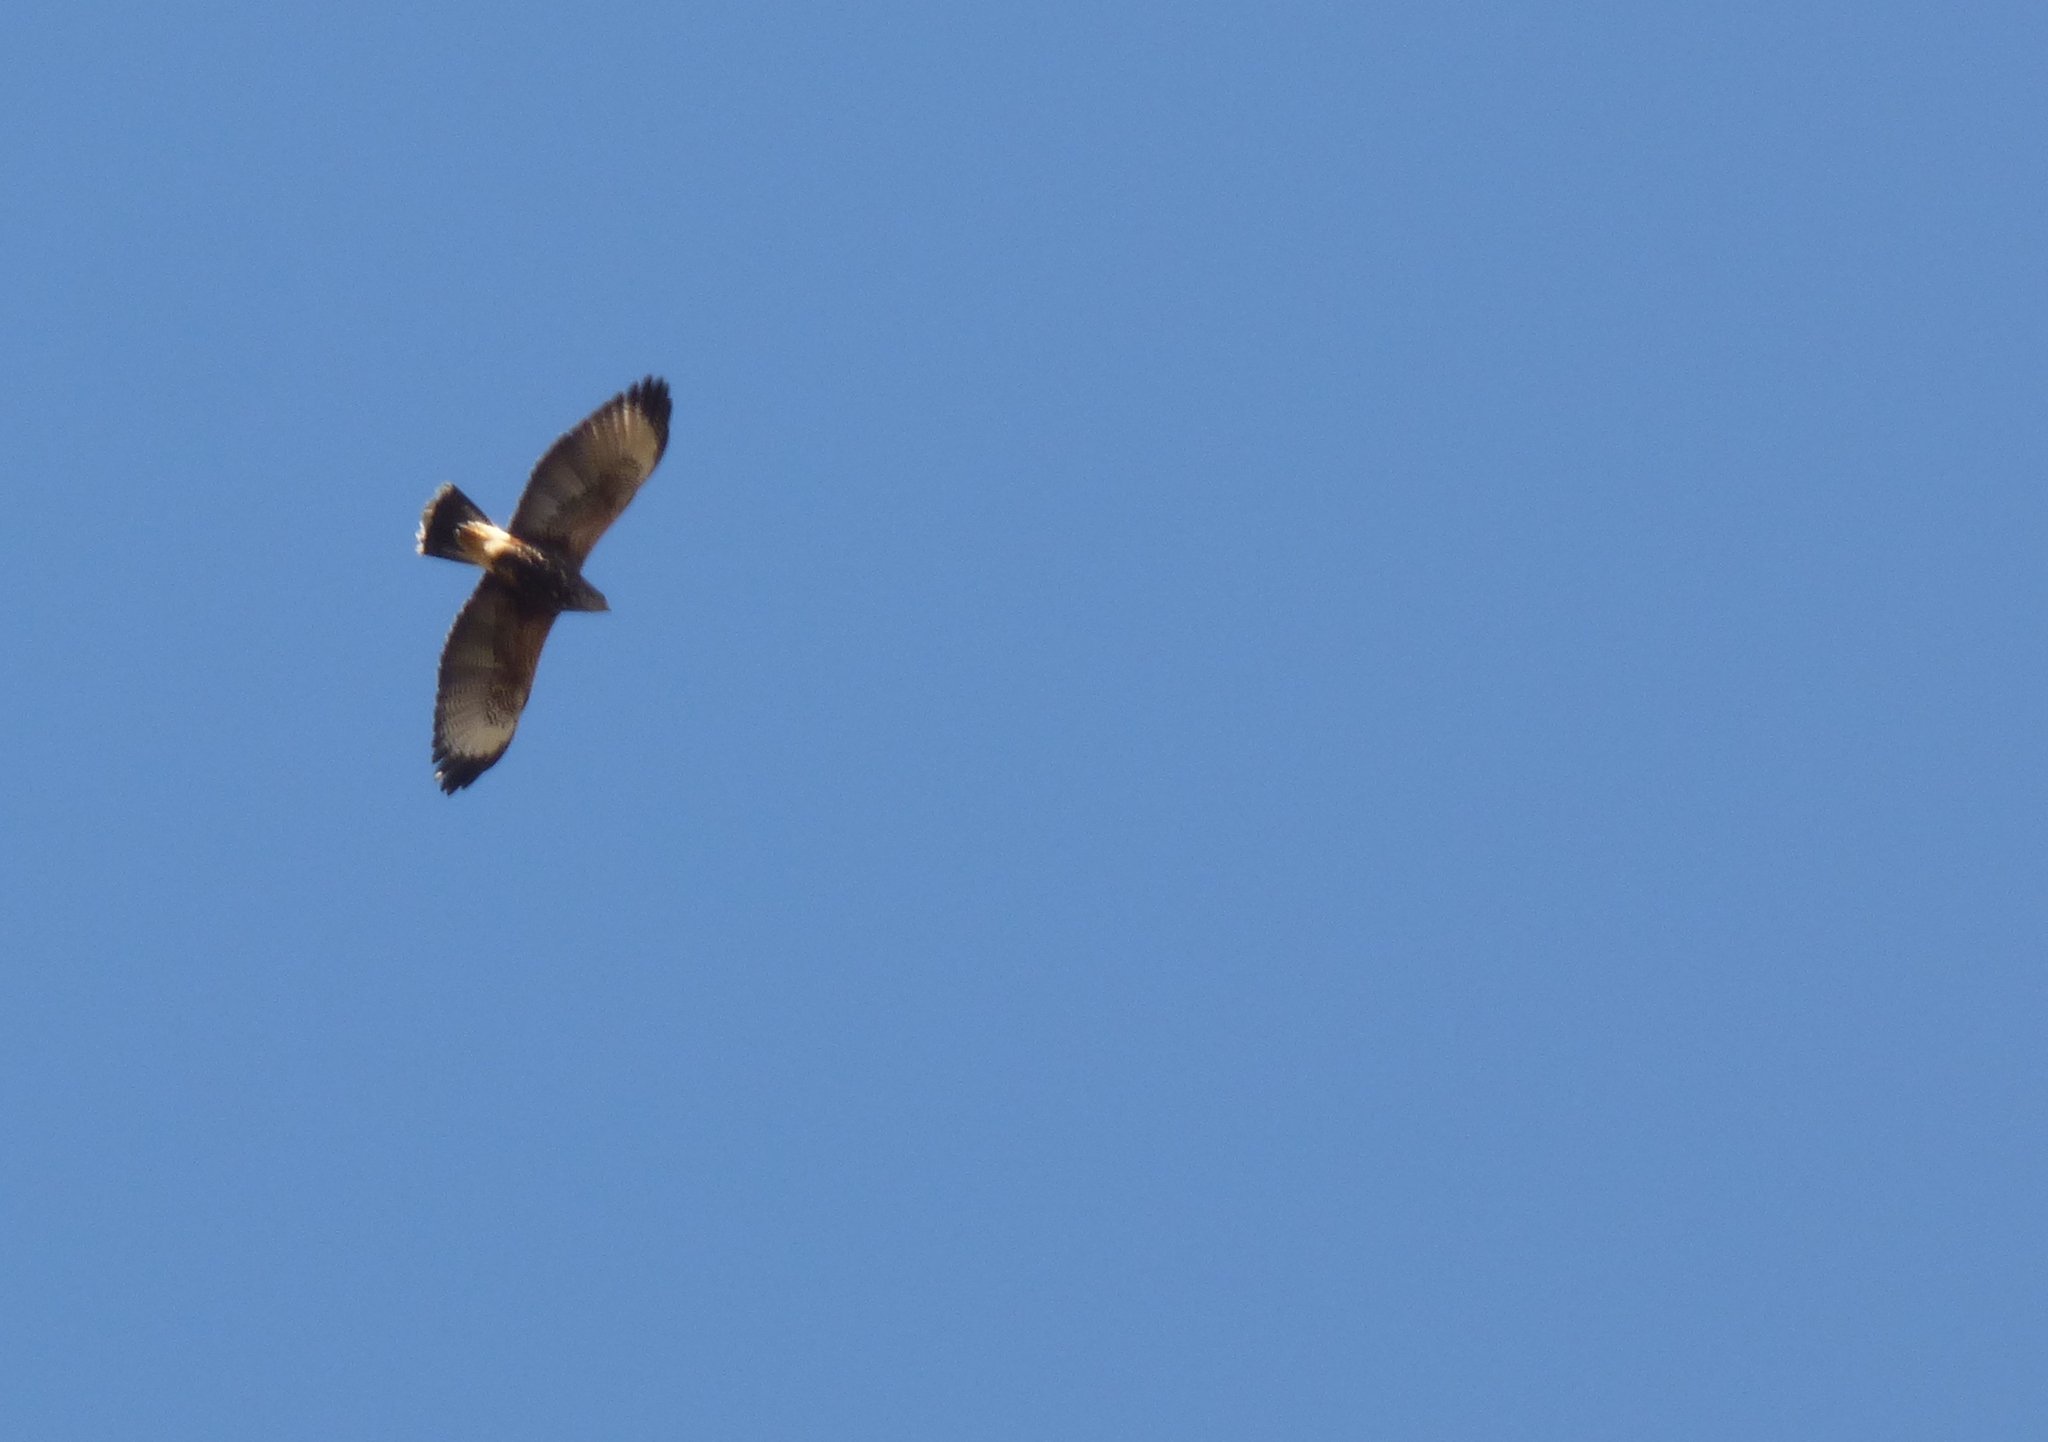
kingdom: Animalia
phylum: Chordata
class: Aves
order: Accipitriformes
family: Accipitridae
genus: Parabuteo
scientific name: Parabuteo unicinctus
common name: Harris's hawk
